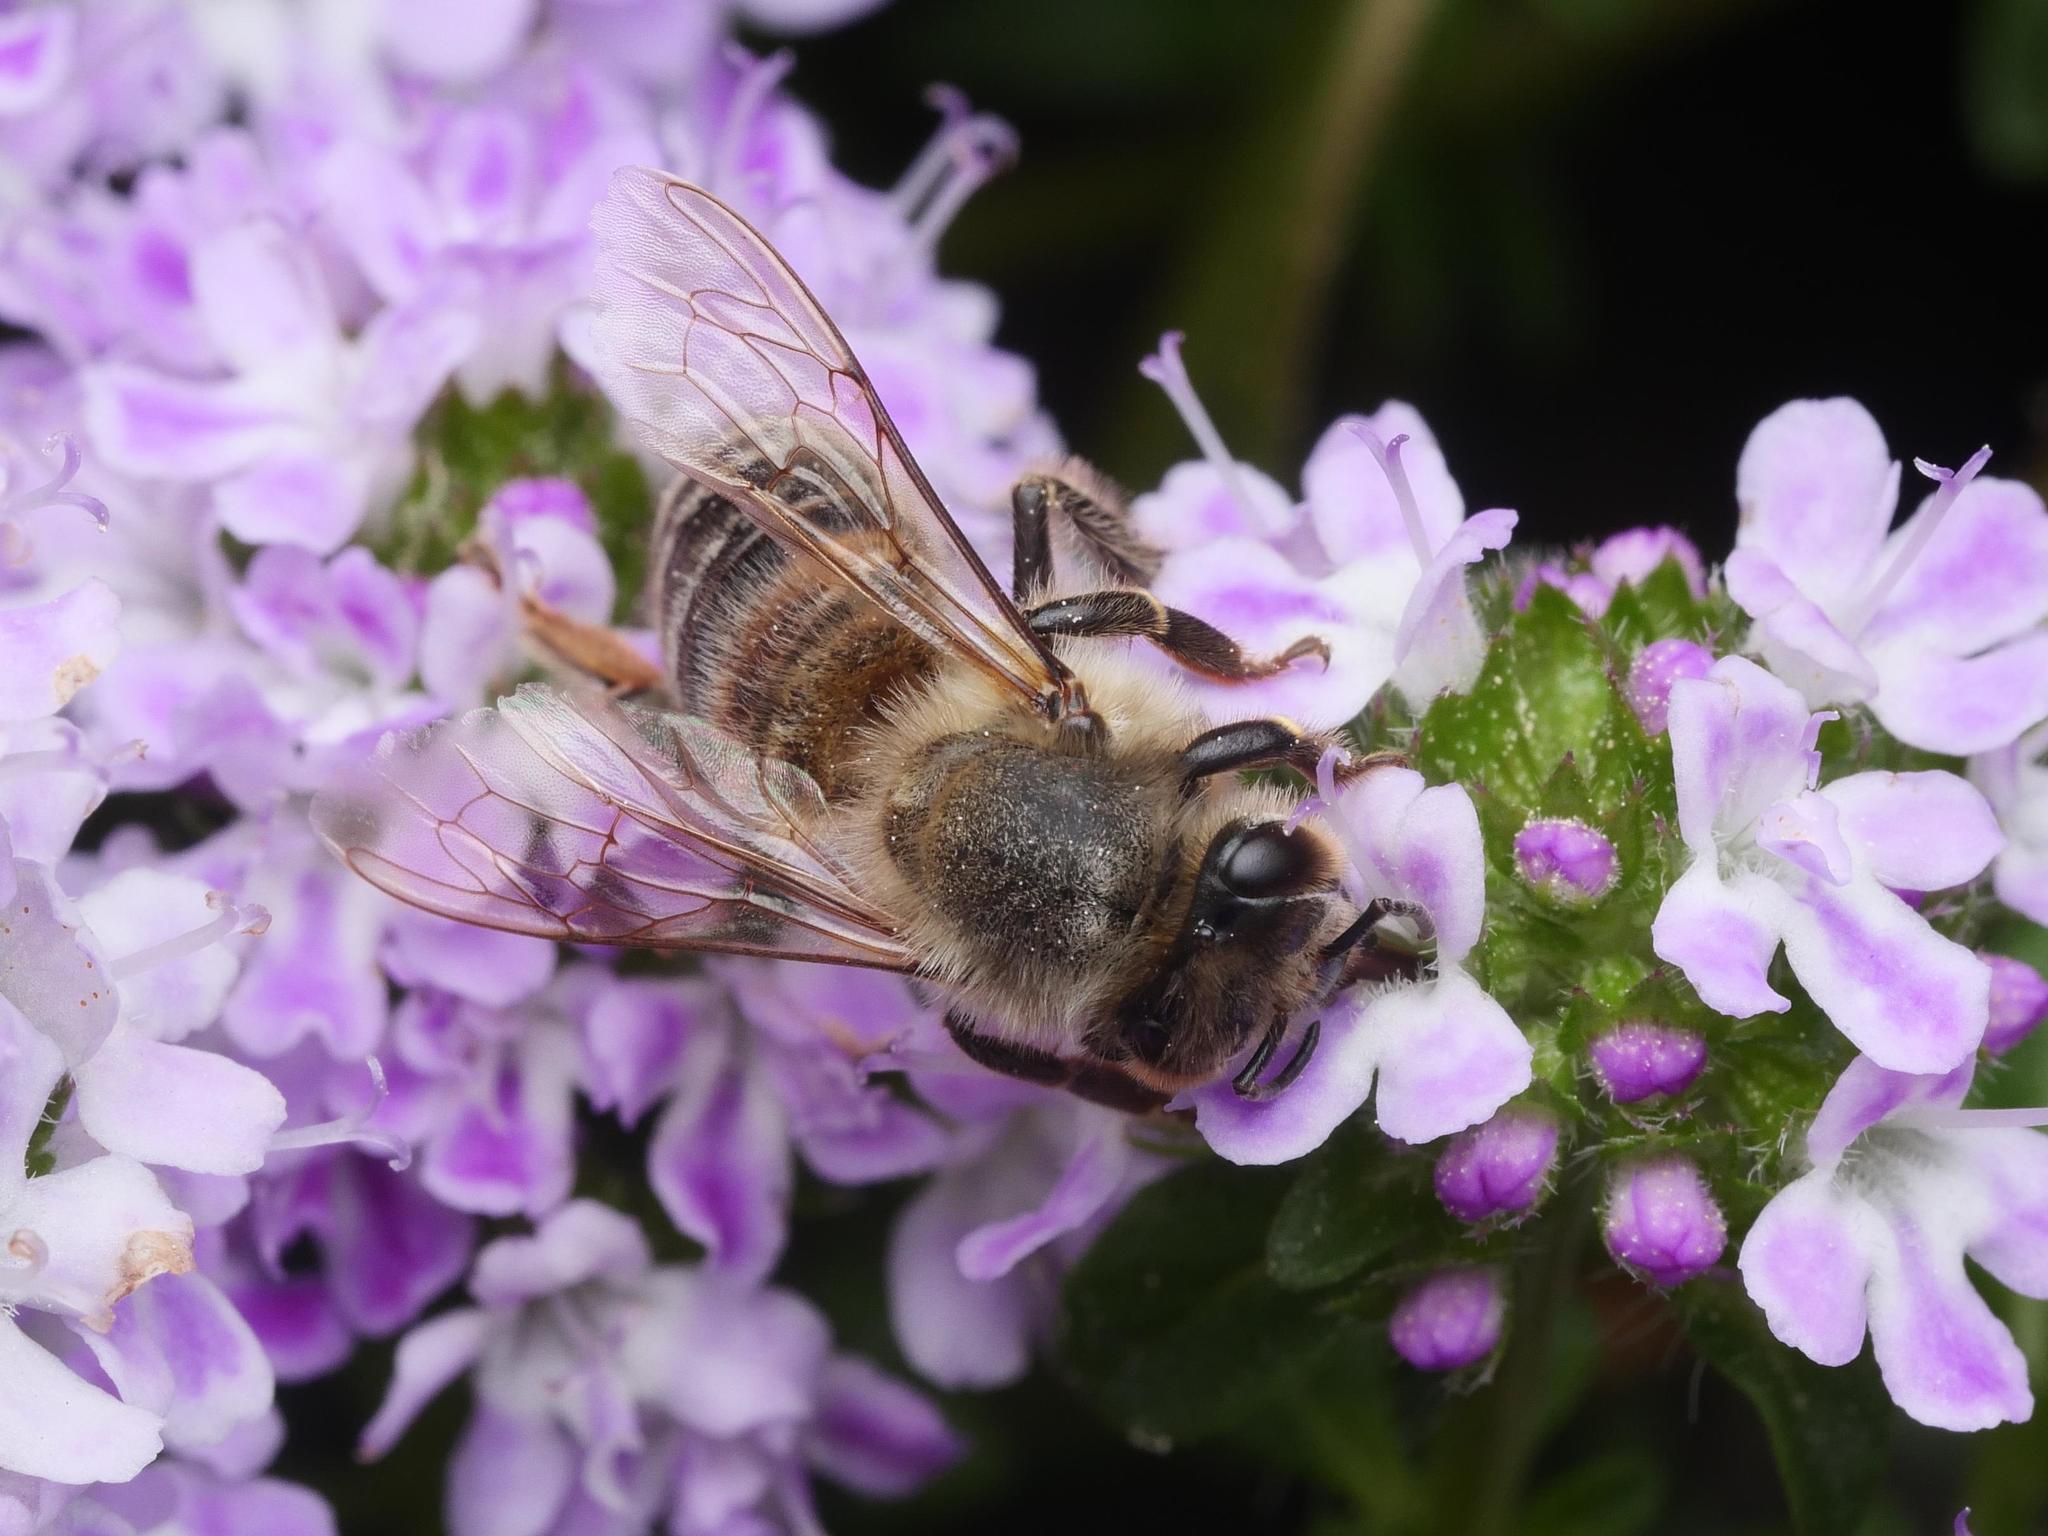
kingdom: Animalia
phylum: Arthropoda
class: Insecta
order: Hymenoptera
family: Apidae
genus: Apis
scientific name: Apis mellifera
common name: Honey bee
